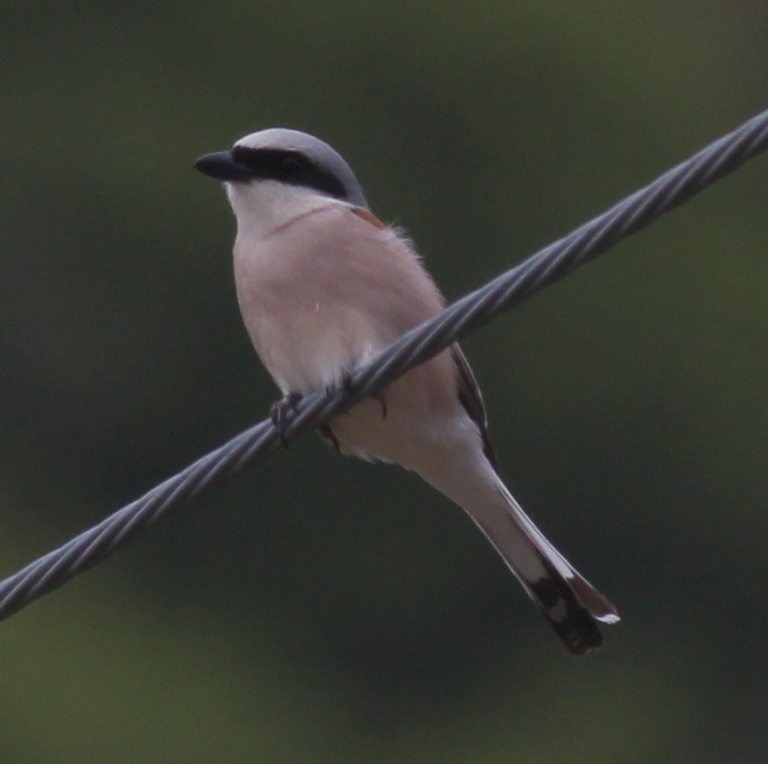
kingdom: Animalia
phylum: Chordata
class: Aves
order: Passeriformes
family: Laniidae
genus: Lanius
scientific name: Lanius collurio
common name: Red-backed shrike
